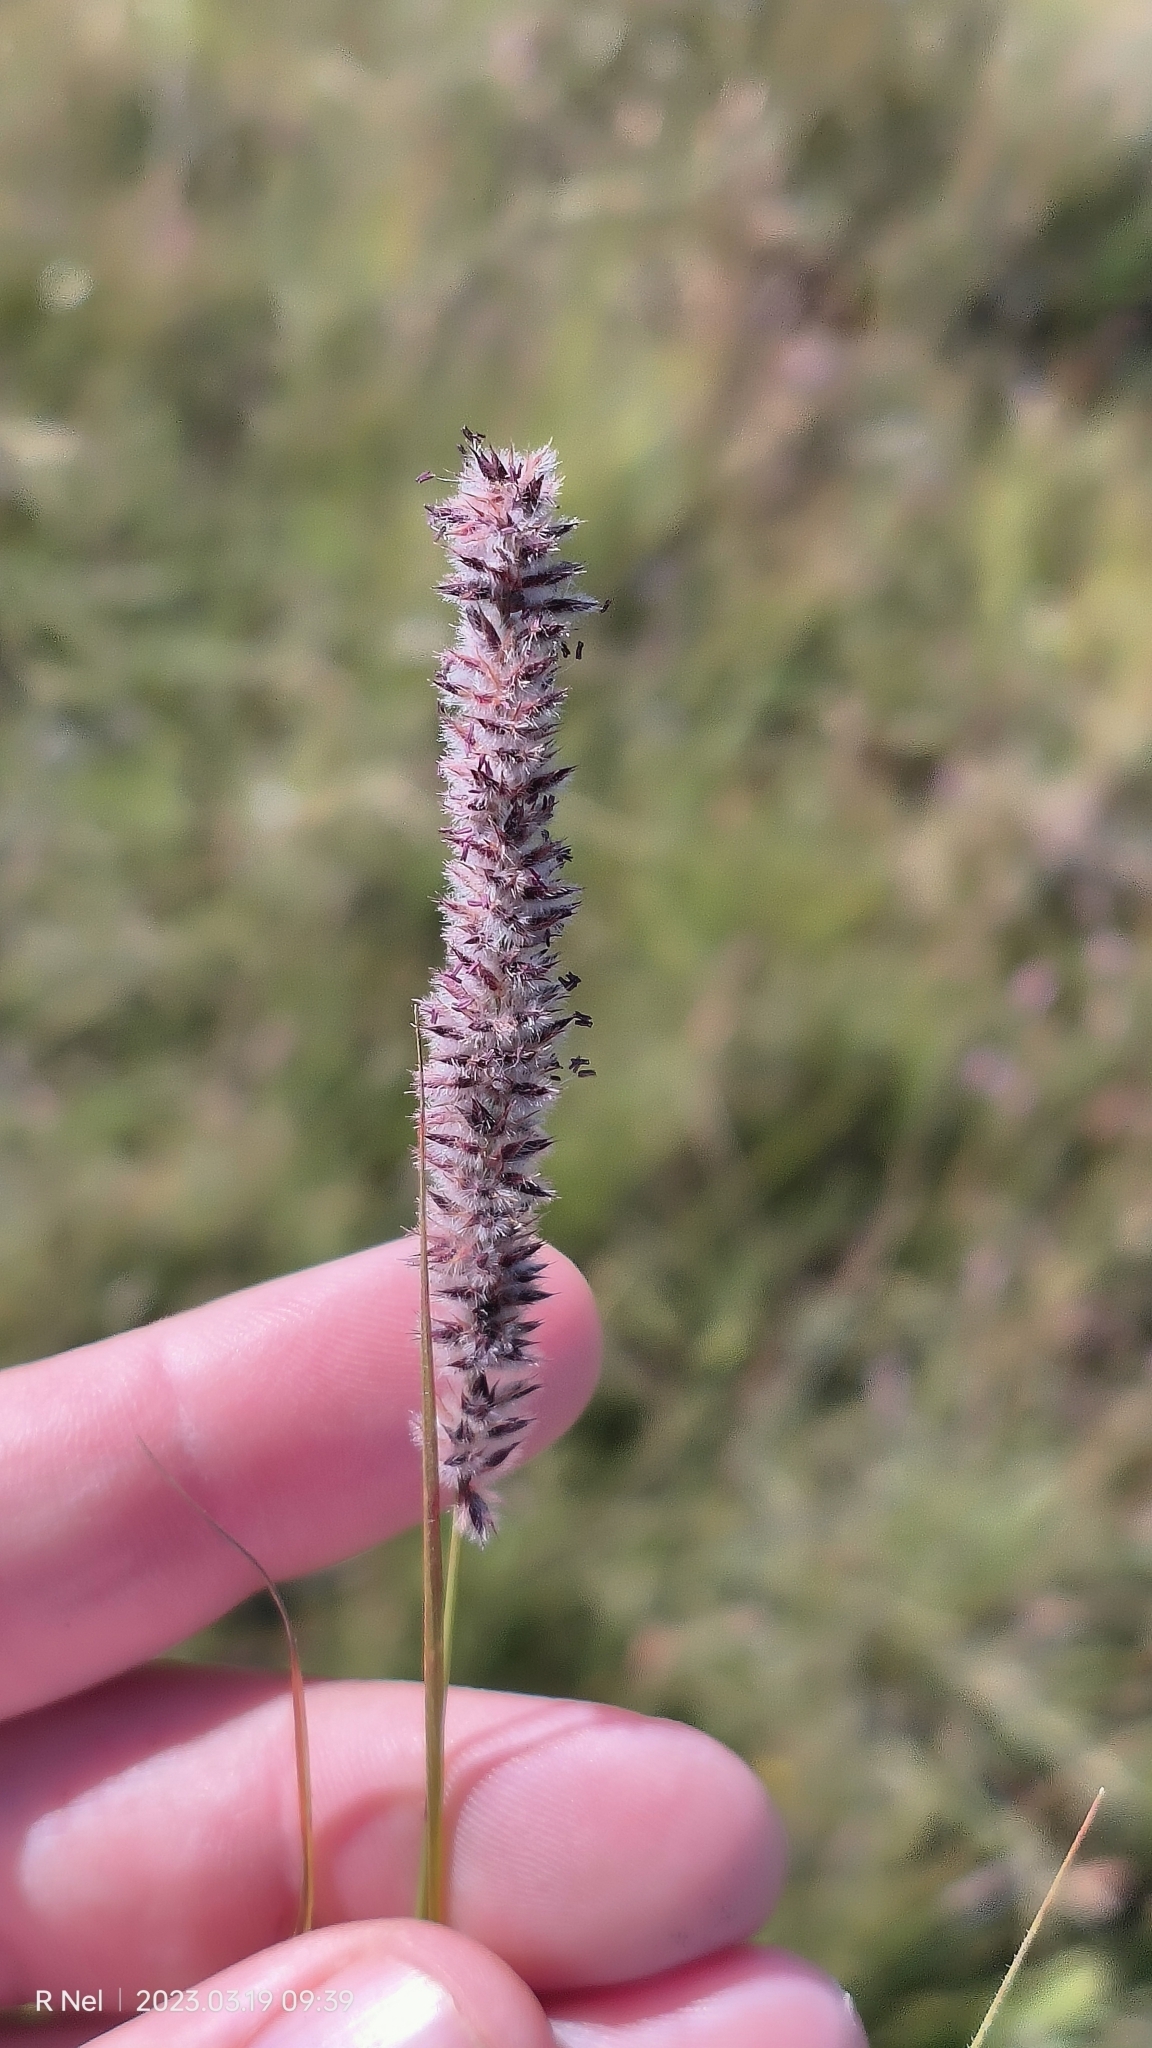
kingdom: Plantae
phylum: Tracheophyta
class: Liliopsida
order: Poales
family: Poaceae
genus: Stiburus
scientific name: Stiburus alopecuroides
